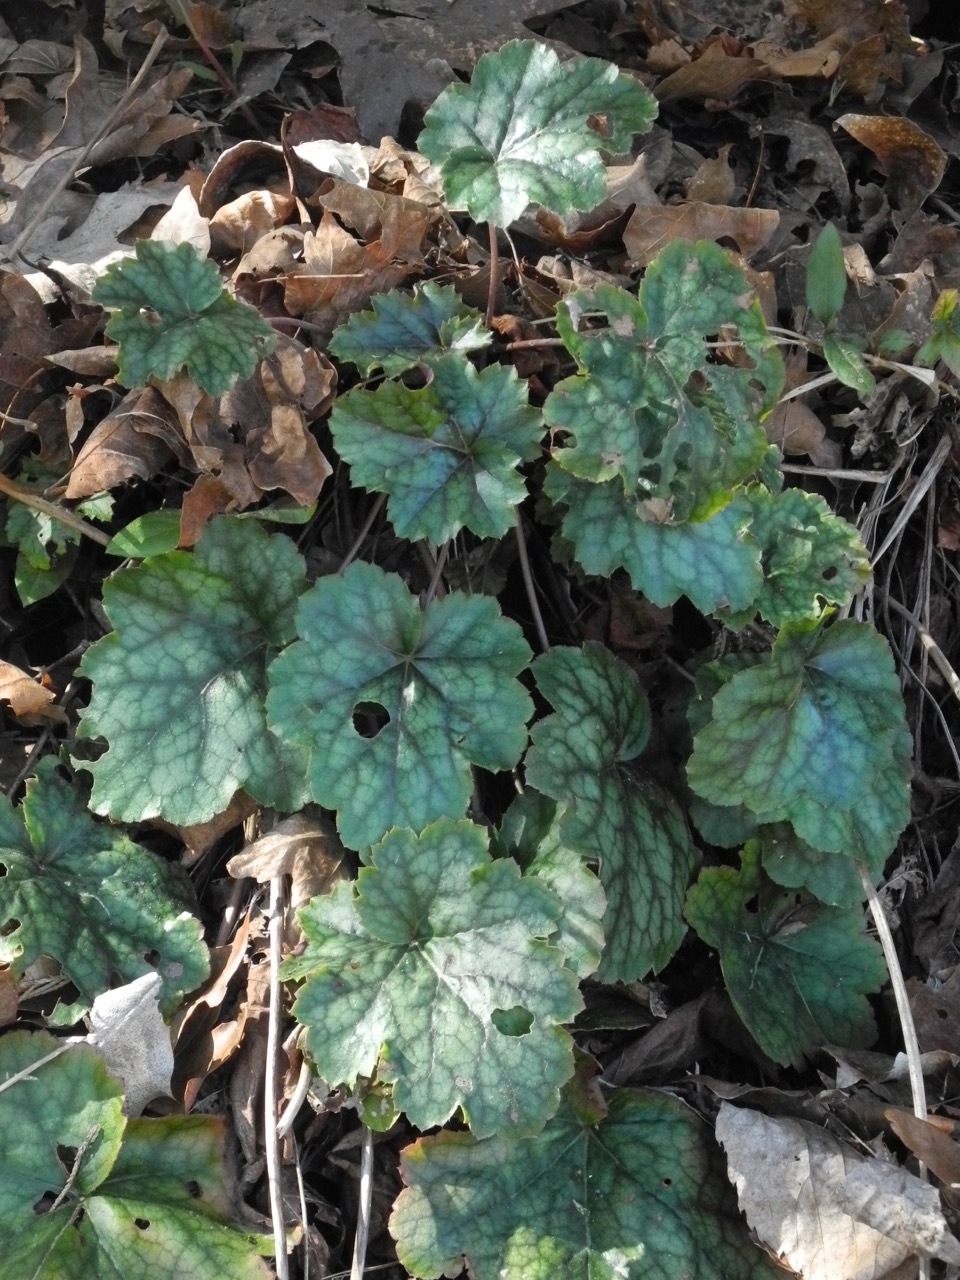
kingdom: Plantae
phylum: Tracheophyta
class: Magnoliopsida
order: Saxifragales
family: Saxifragaceae
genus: Heuchera
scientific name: Heuchera americana
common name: Alumroot
